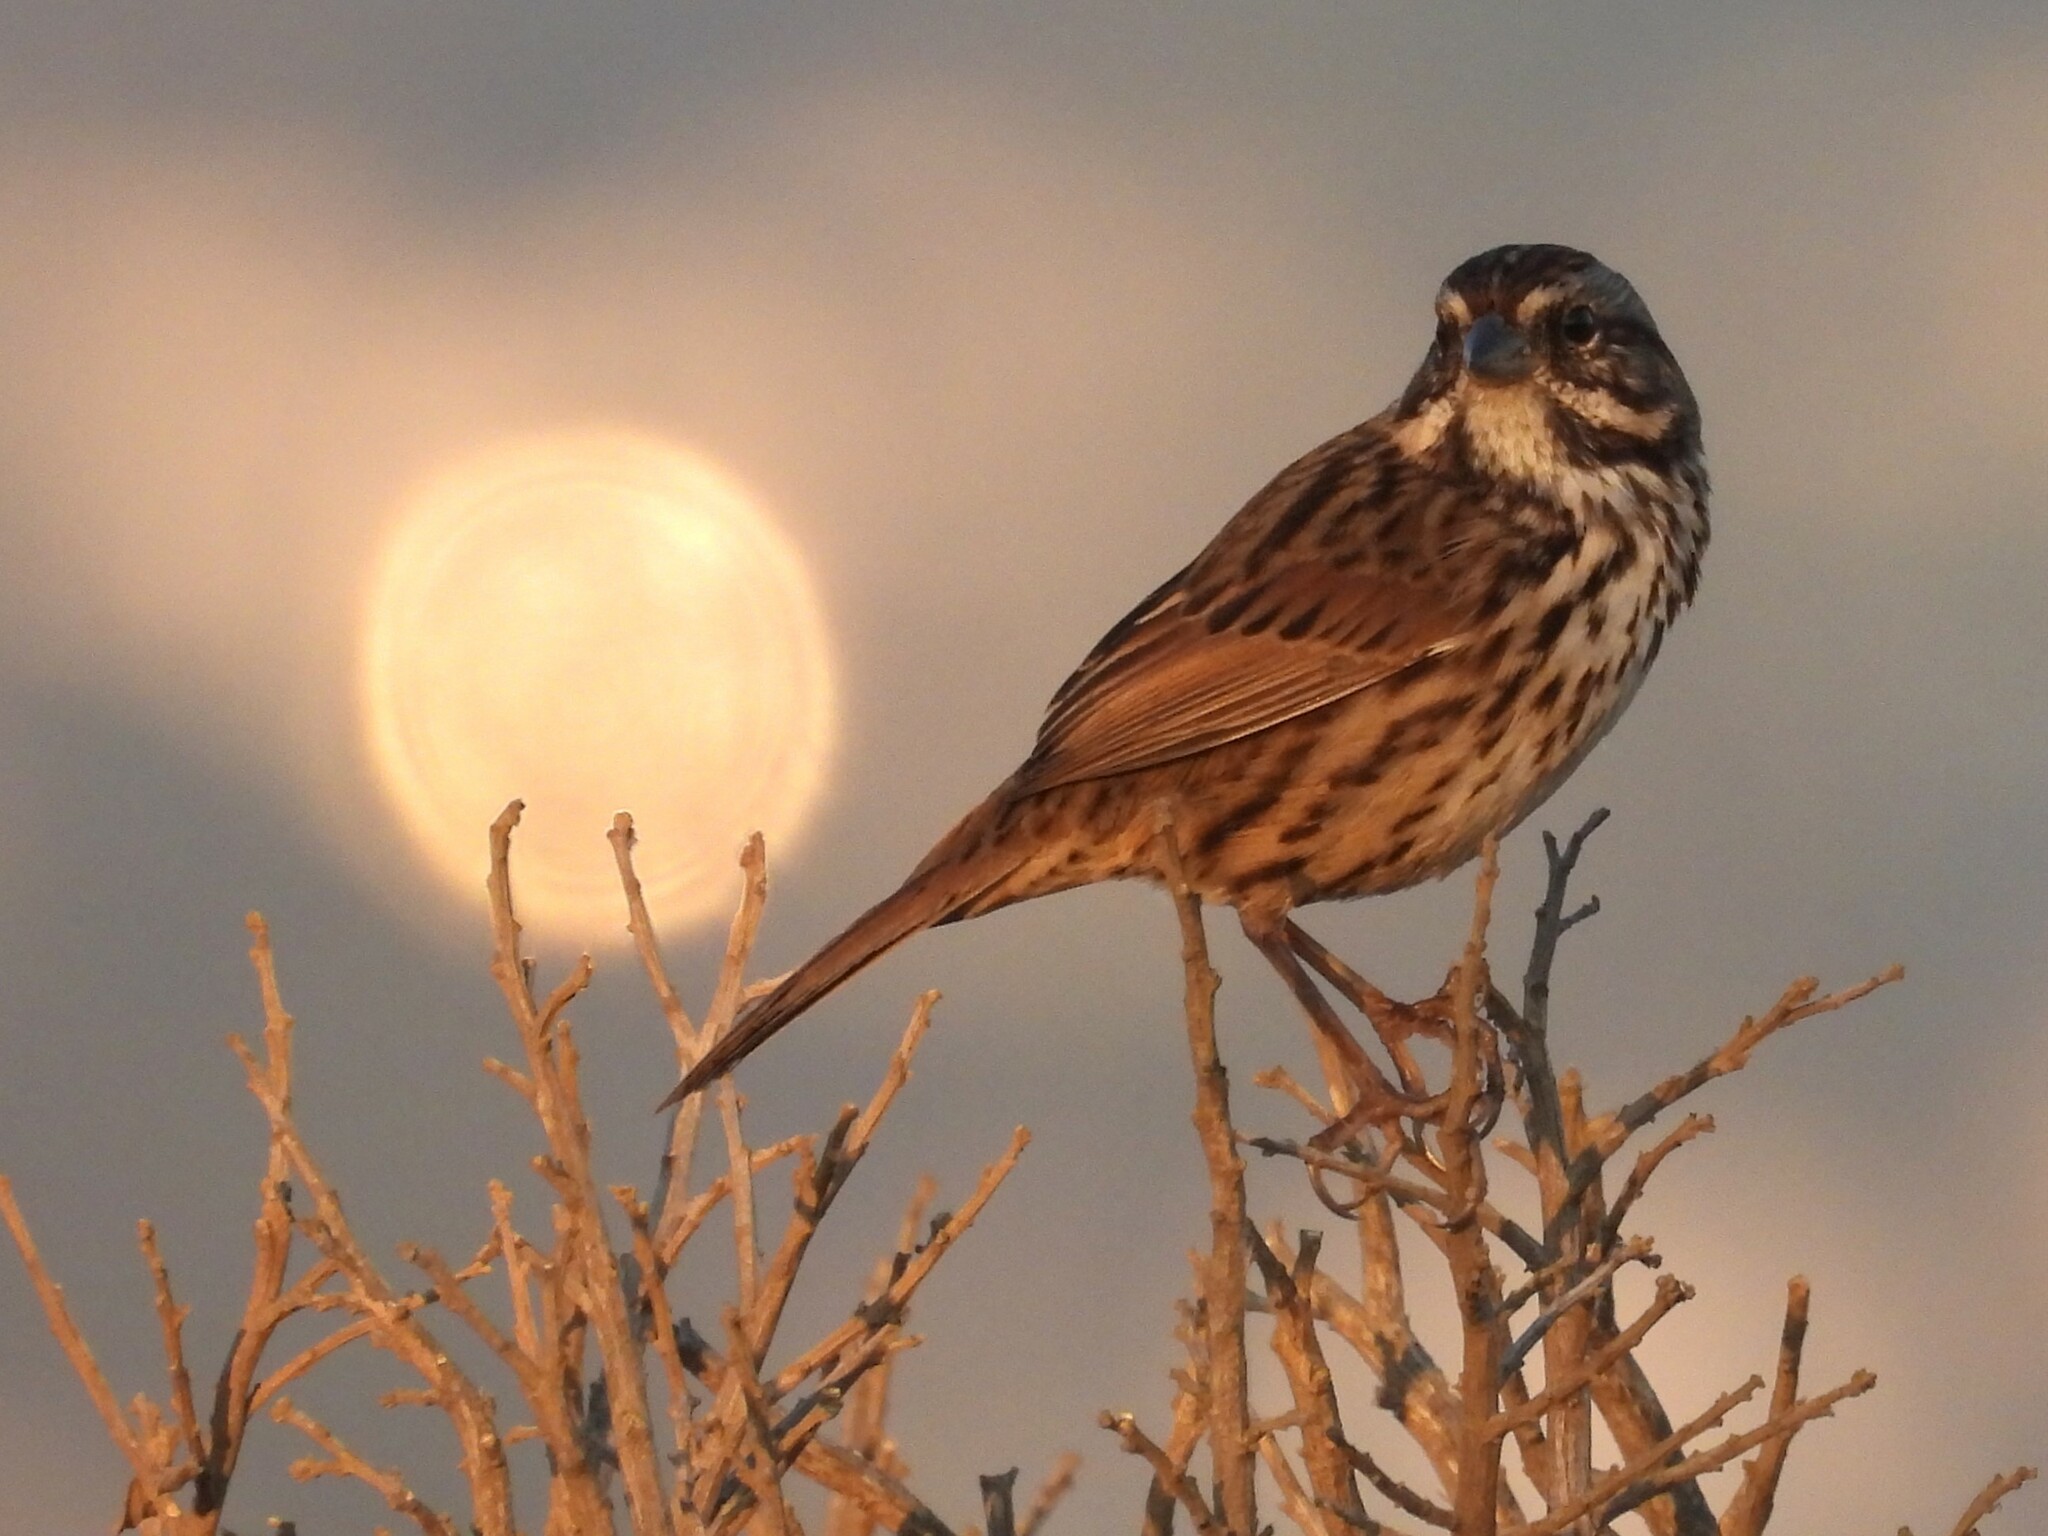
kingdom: Animalia
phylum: Chordata
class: Aves
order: Passeriformes
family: Passerellidae
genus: Melospiza
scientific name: Melospiza melodia
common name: Song sparrow
